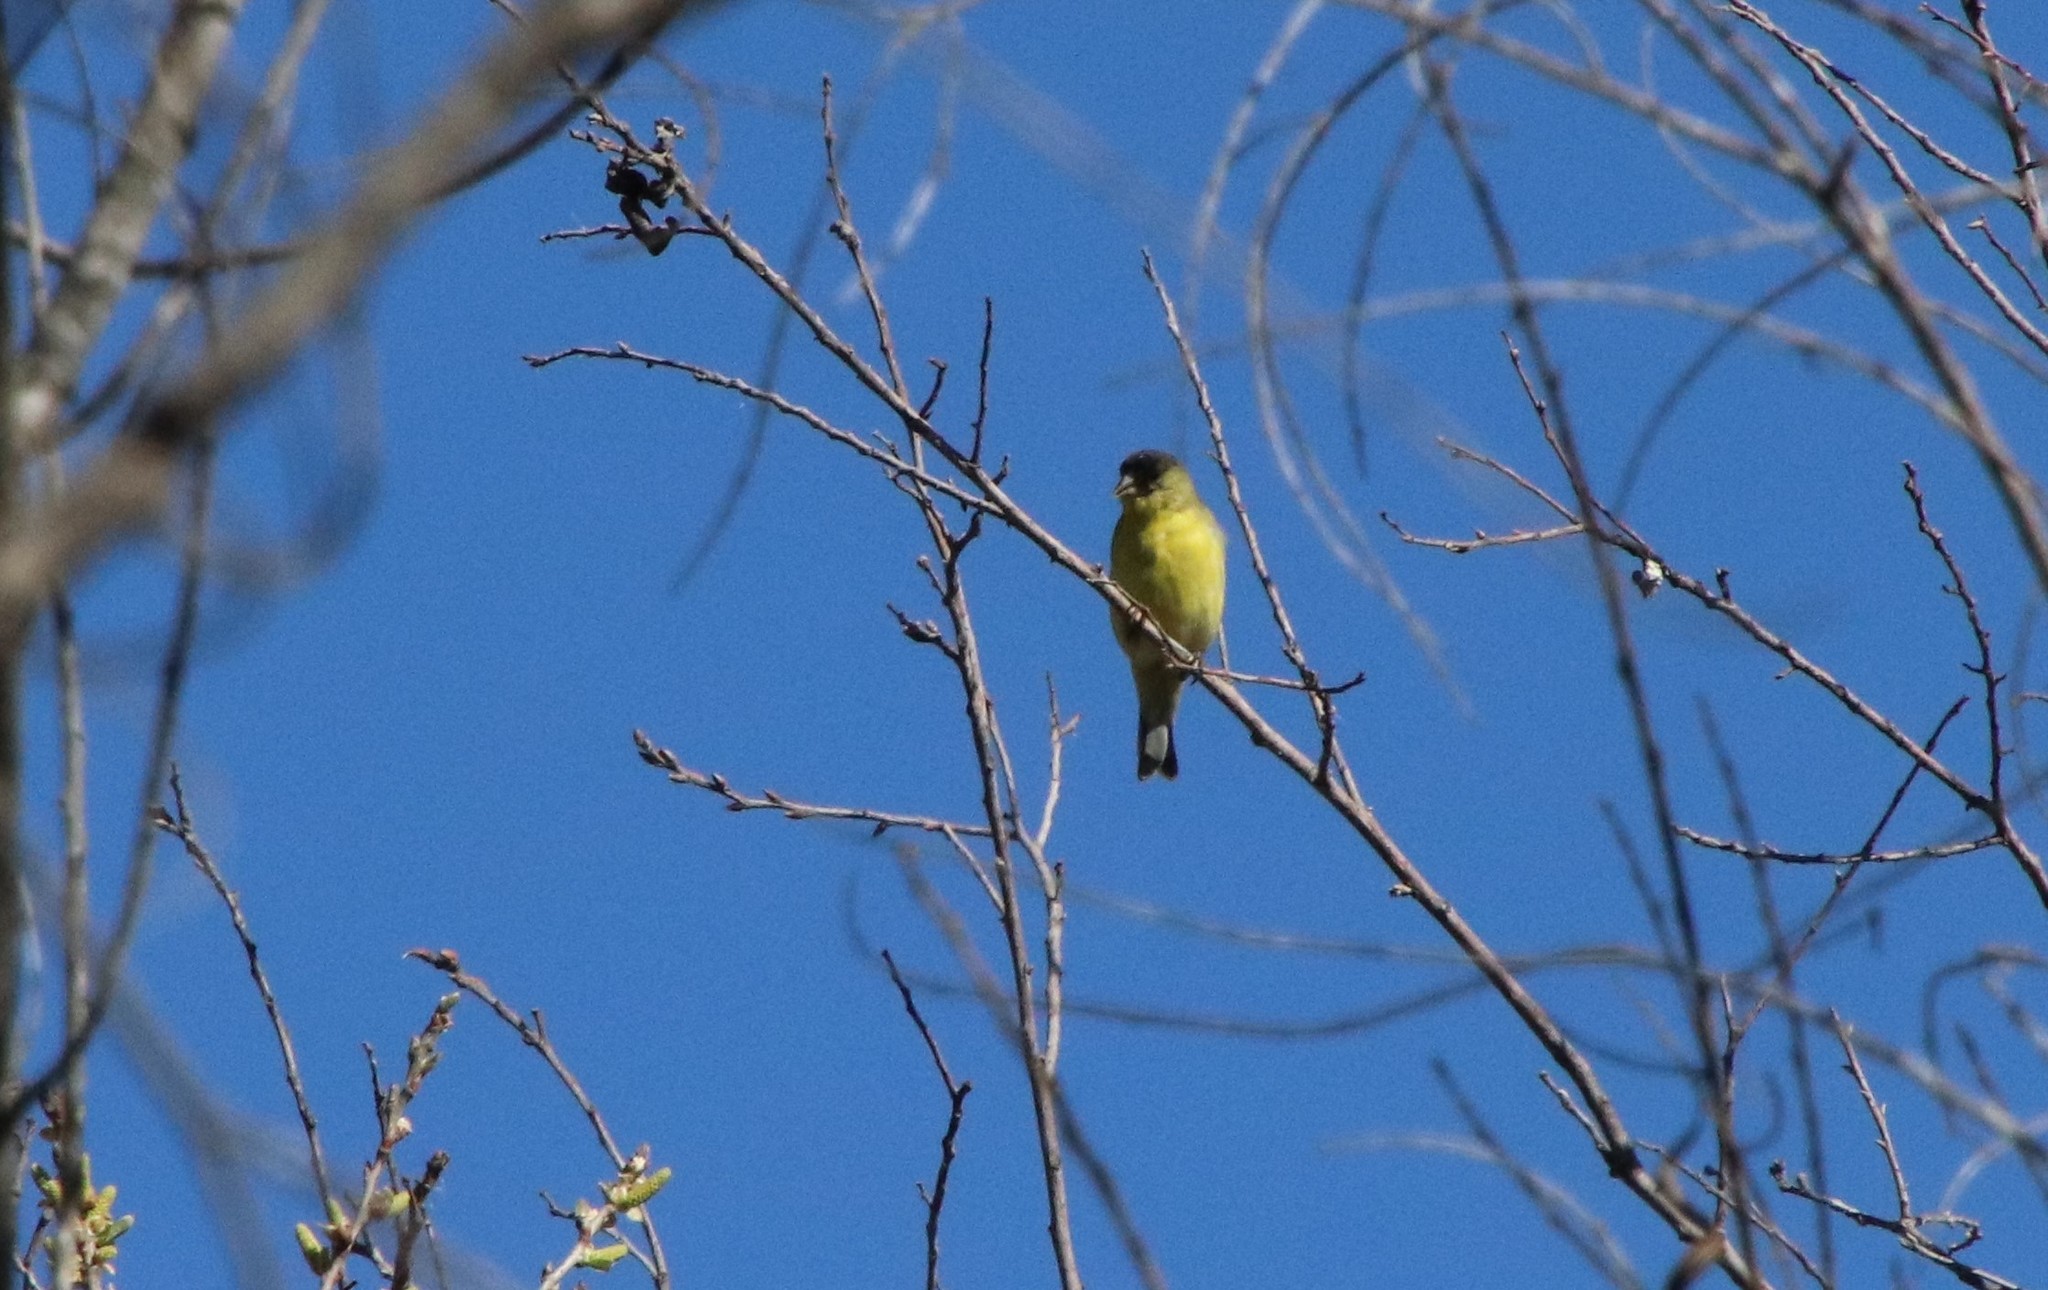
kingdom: Animalia
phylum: Chordata
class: Aves
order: Passeriformes
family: Fringillidae
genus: Spinus
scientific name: Spinus psaltria
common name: Lesser goldfinch
